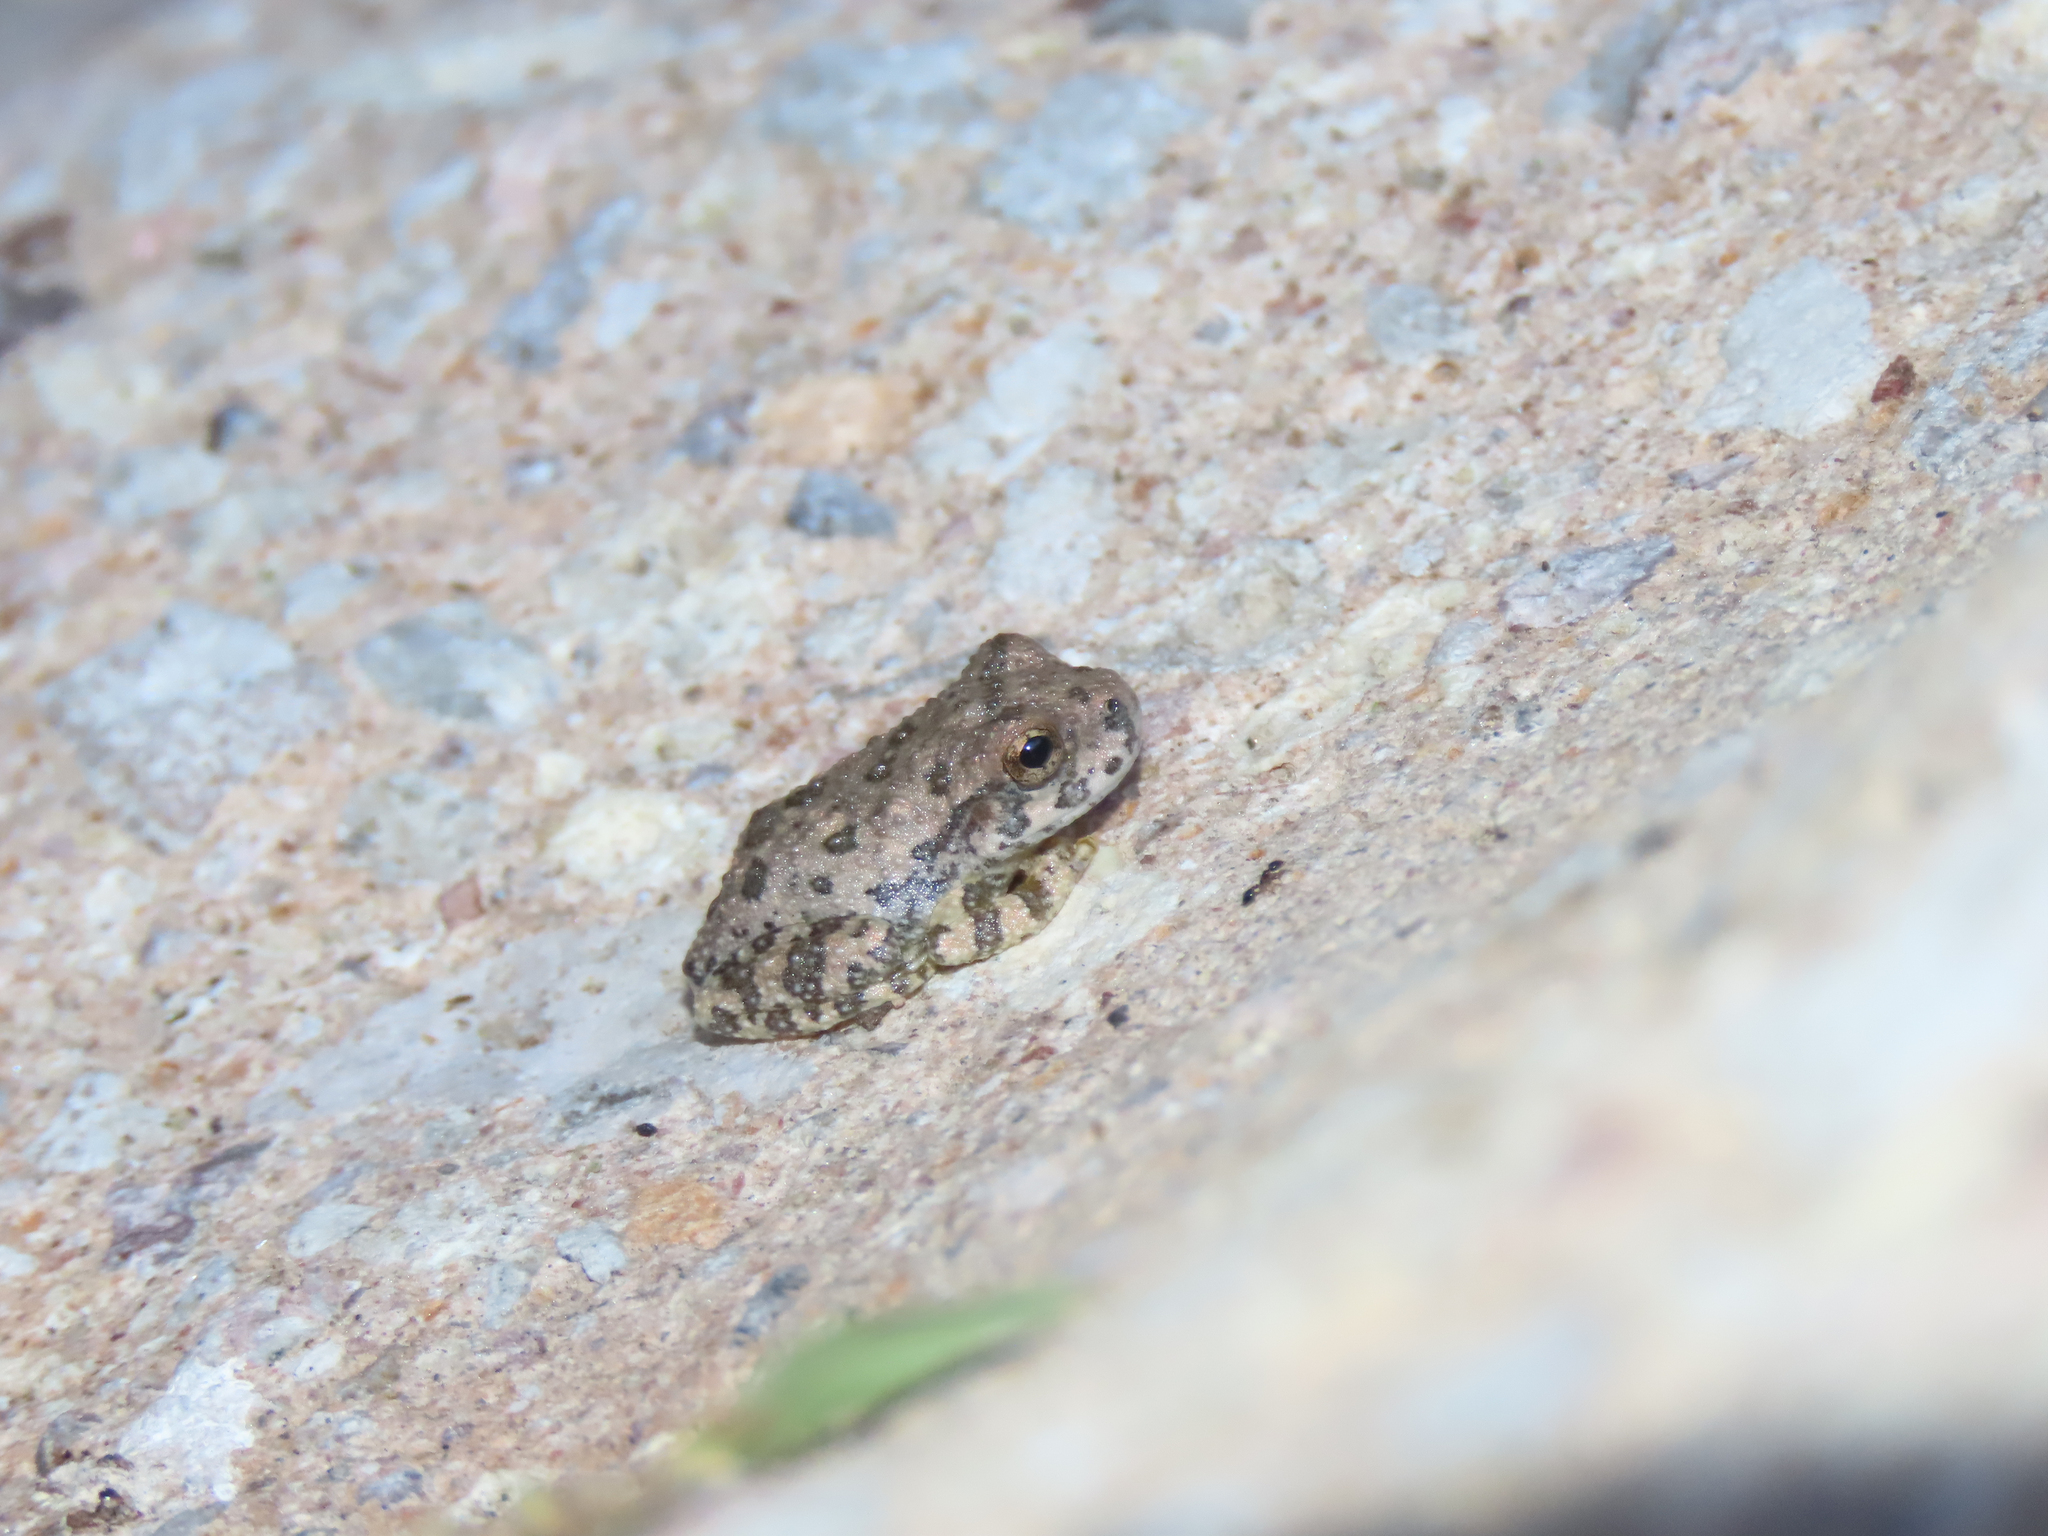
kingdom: Animalia
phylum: Chordata
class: Amphibia
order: Anura
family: Hylidae
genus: Dryophytes
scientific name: Dryophytes arenicolor
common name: Canyon treefrog
